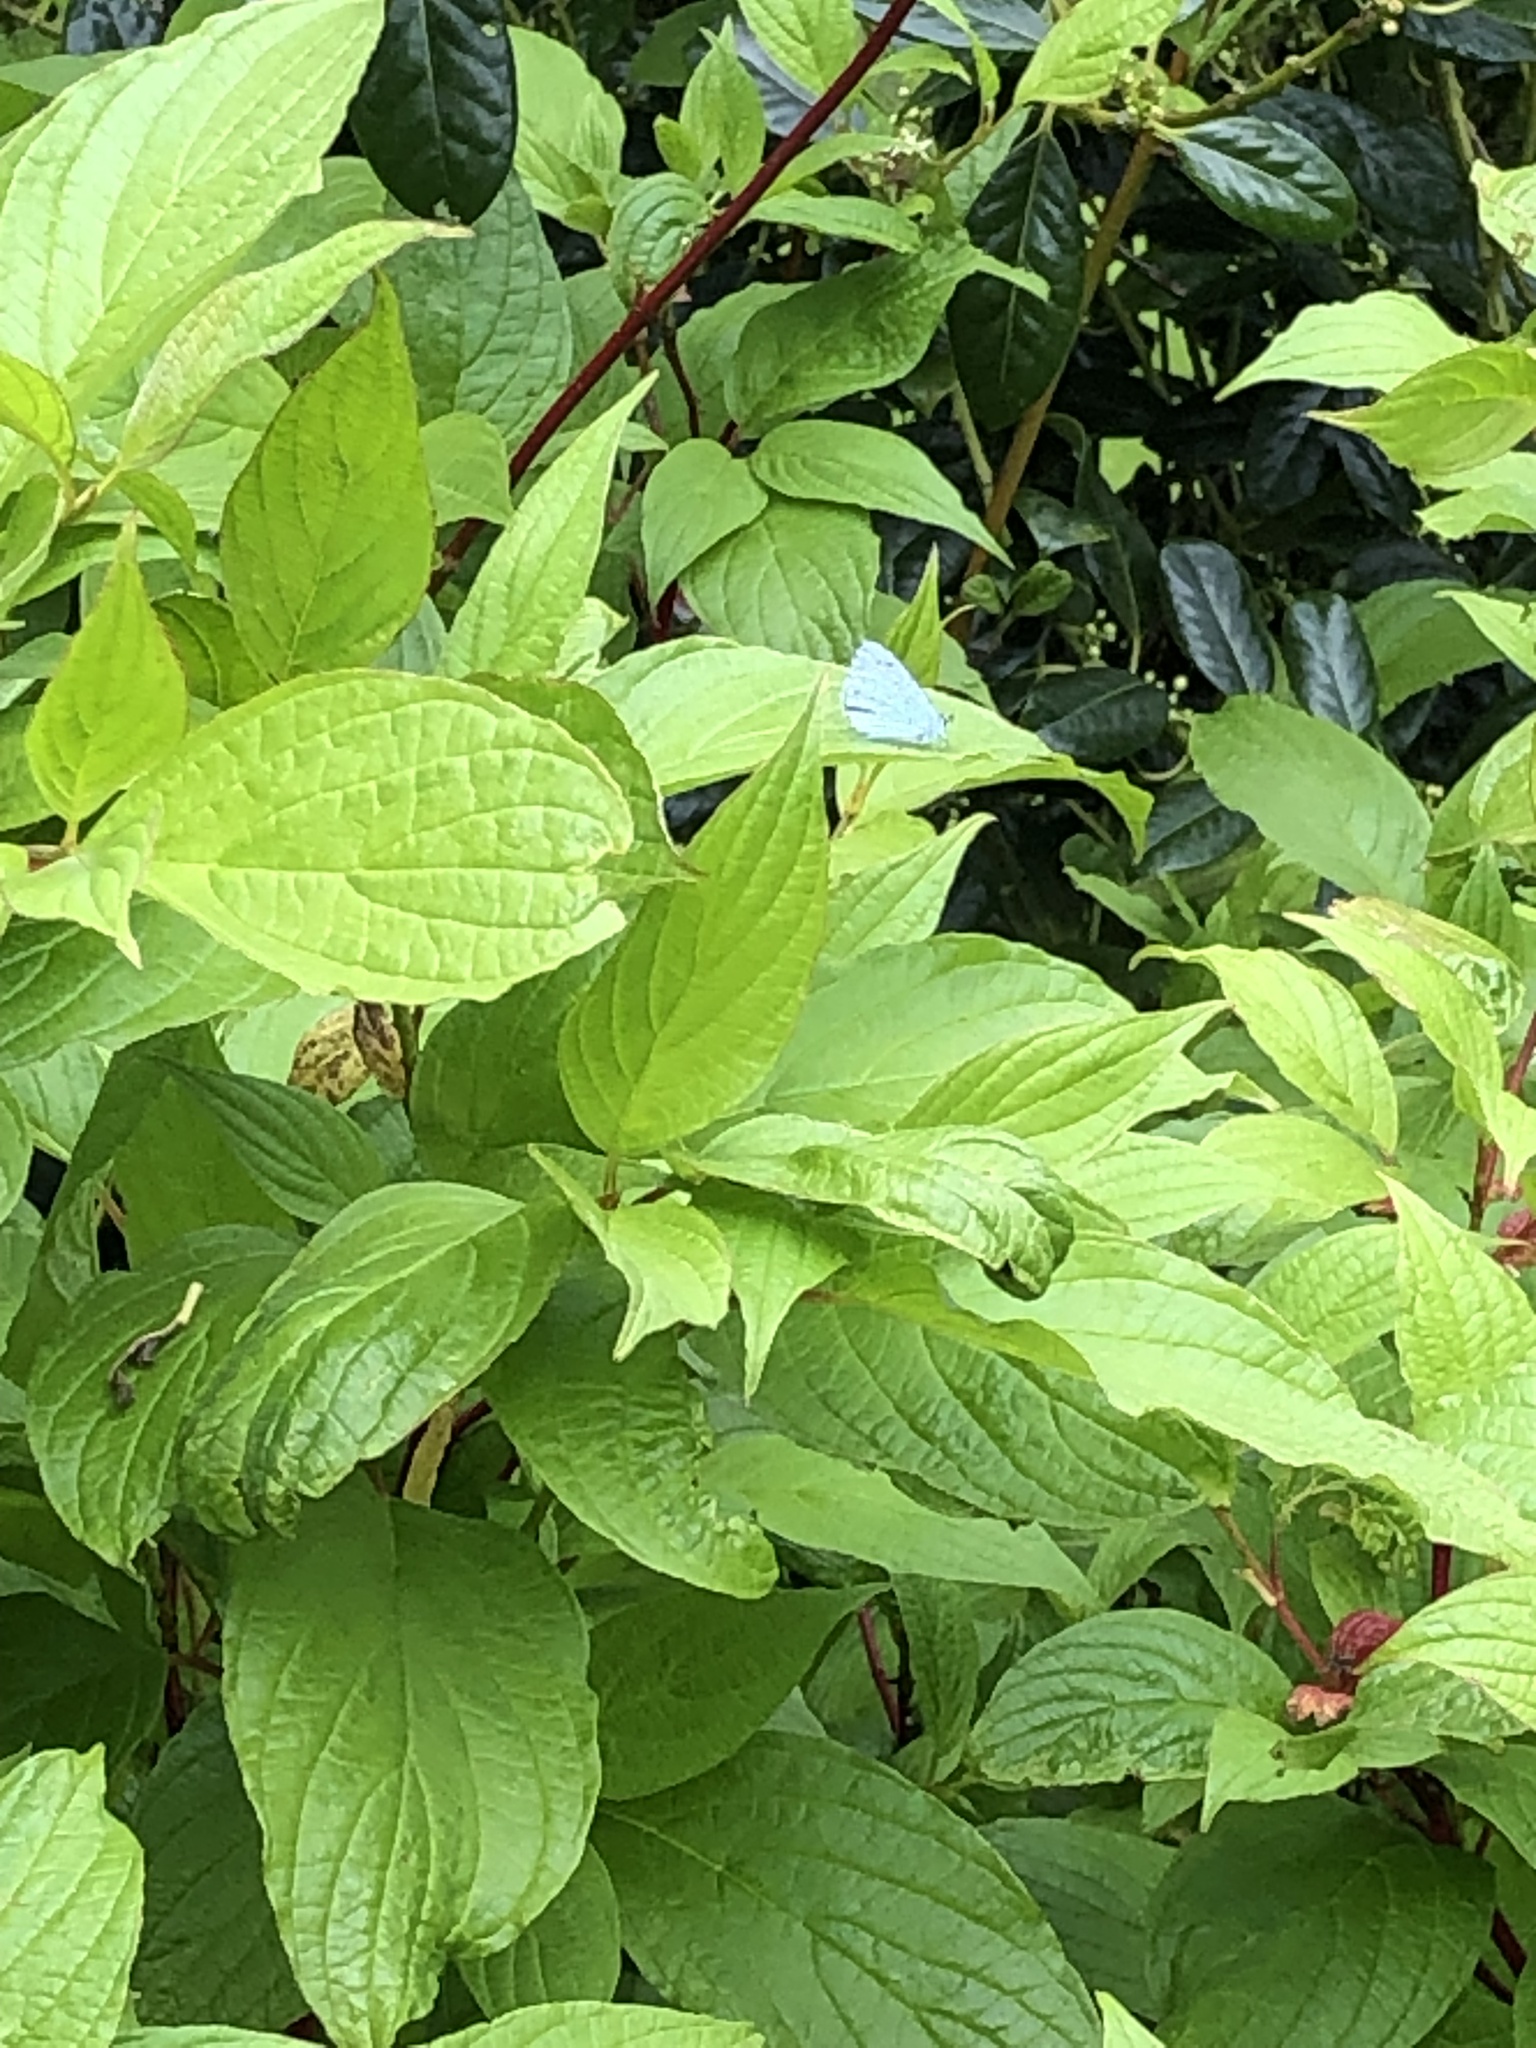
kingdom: Animalia
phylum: Arthropoda
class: Insecta
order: Lepidoptera
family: Lycaenidae
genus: Celastrina
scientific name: Celastrina argiolus
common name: Holly blue
